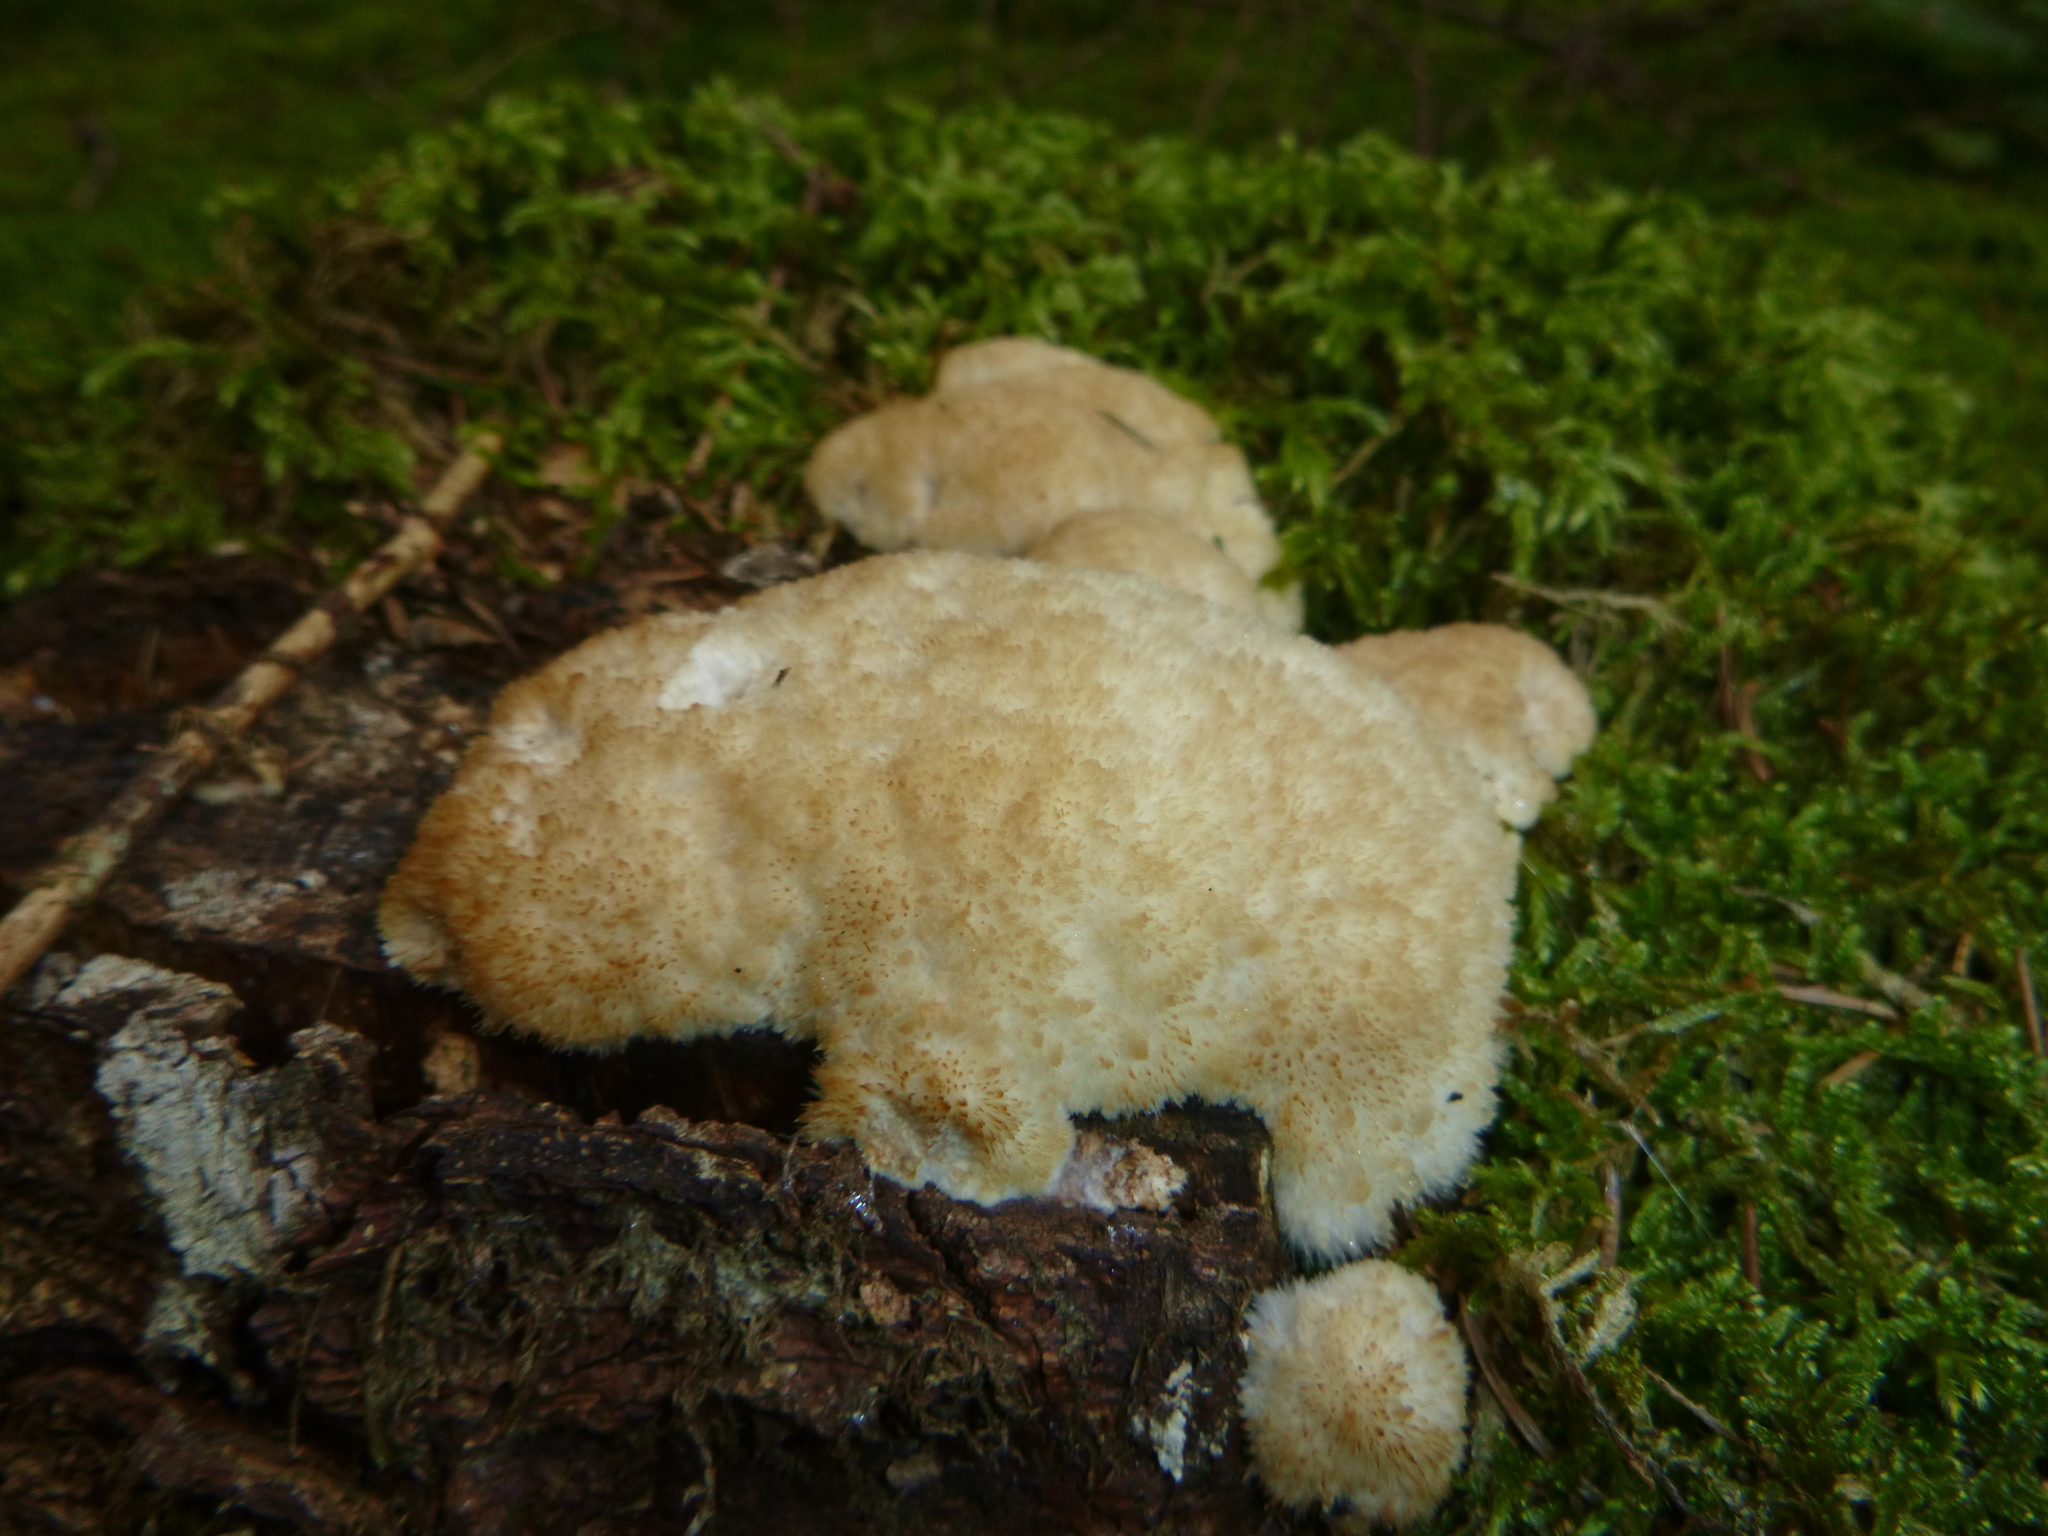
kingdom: Fungi
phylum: Basidiomycota
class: Agaricomycetes
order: Polyporales
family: Dacryobolaceae
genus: Postia
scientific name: Postia ptychogaster
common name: Powderpuff bracket
